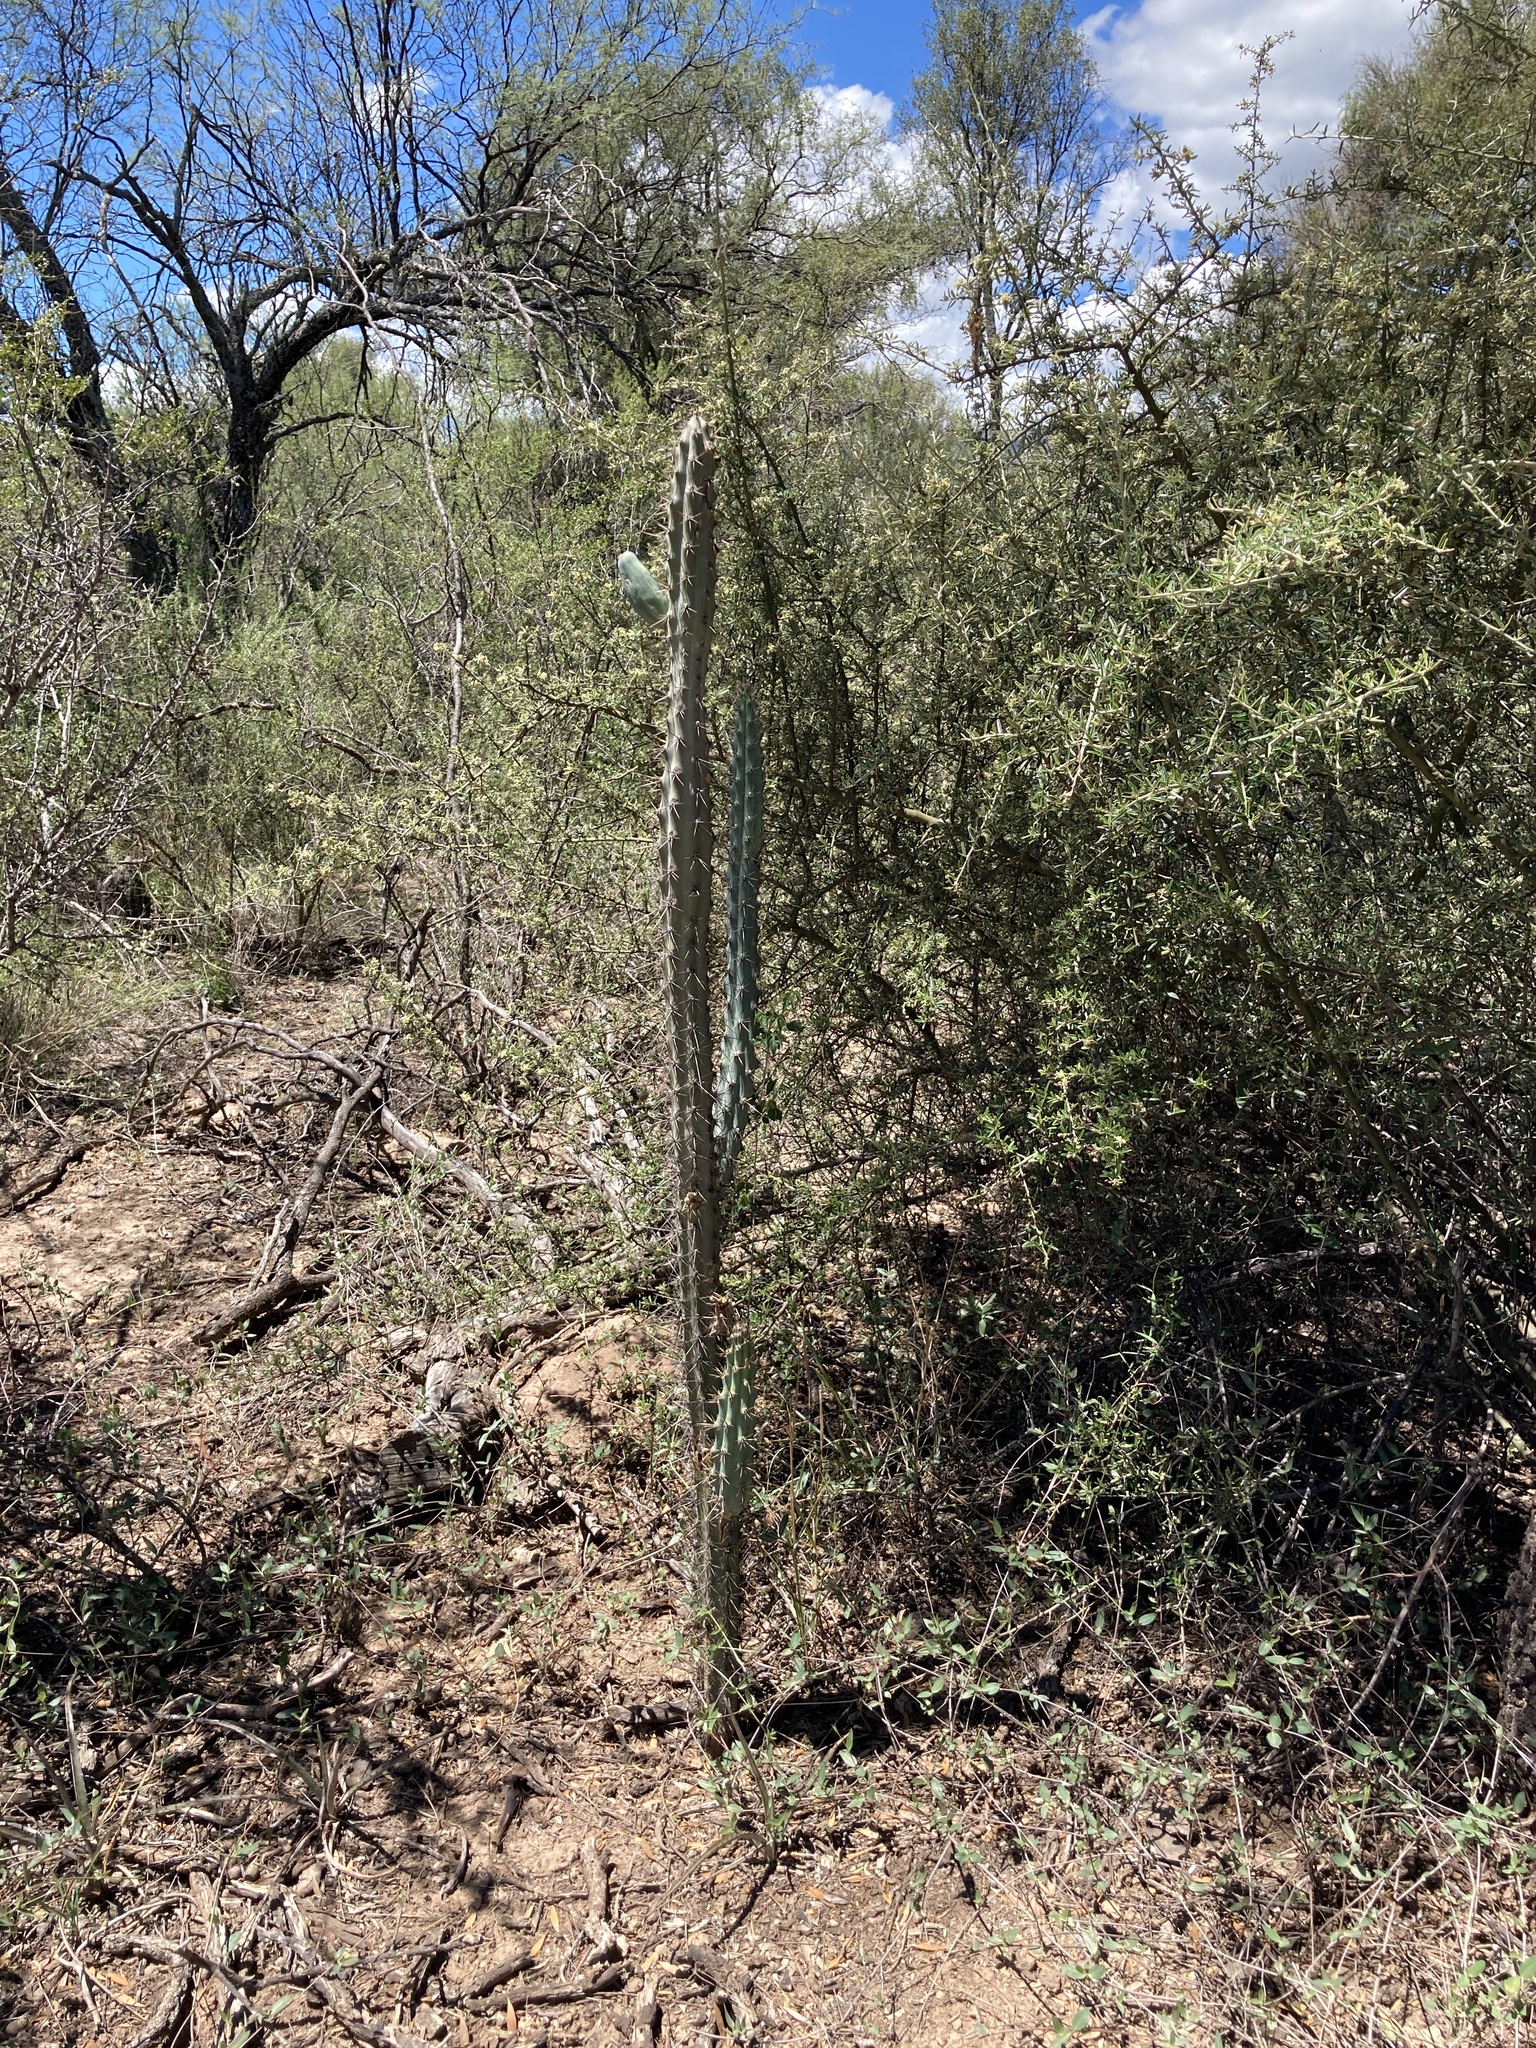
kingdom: Plantae
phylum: Tracheophyta
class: Magnoliopsida
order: Caryophyllales
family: Cactaceae
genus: Cereus
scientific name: Cereus aethiops
